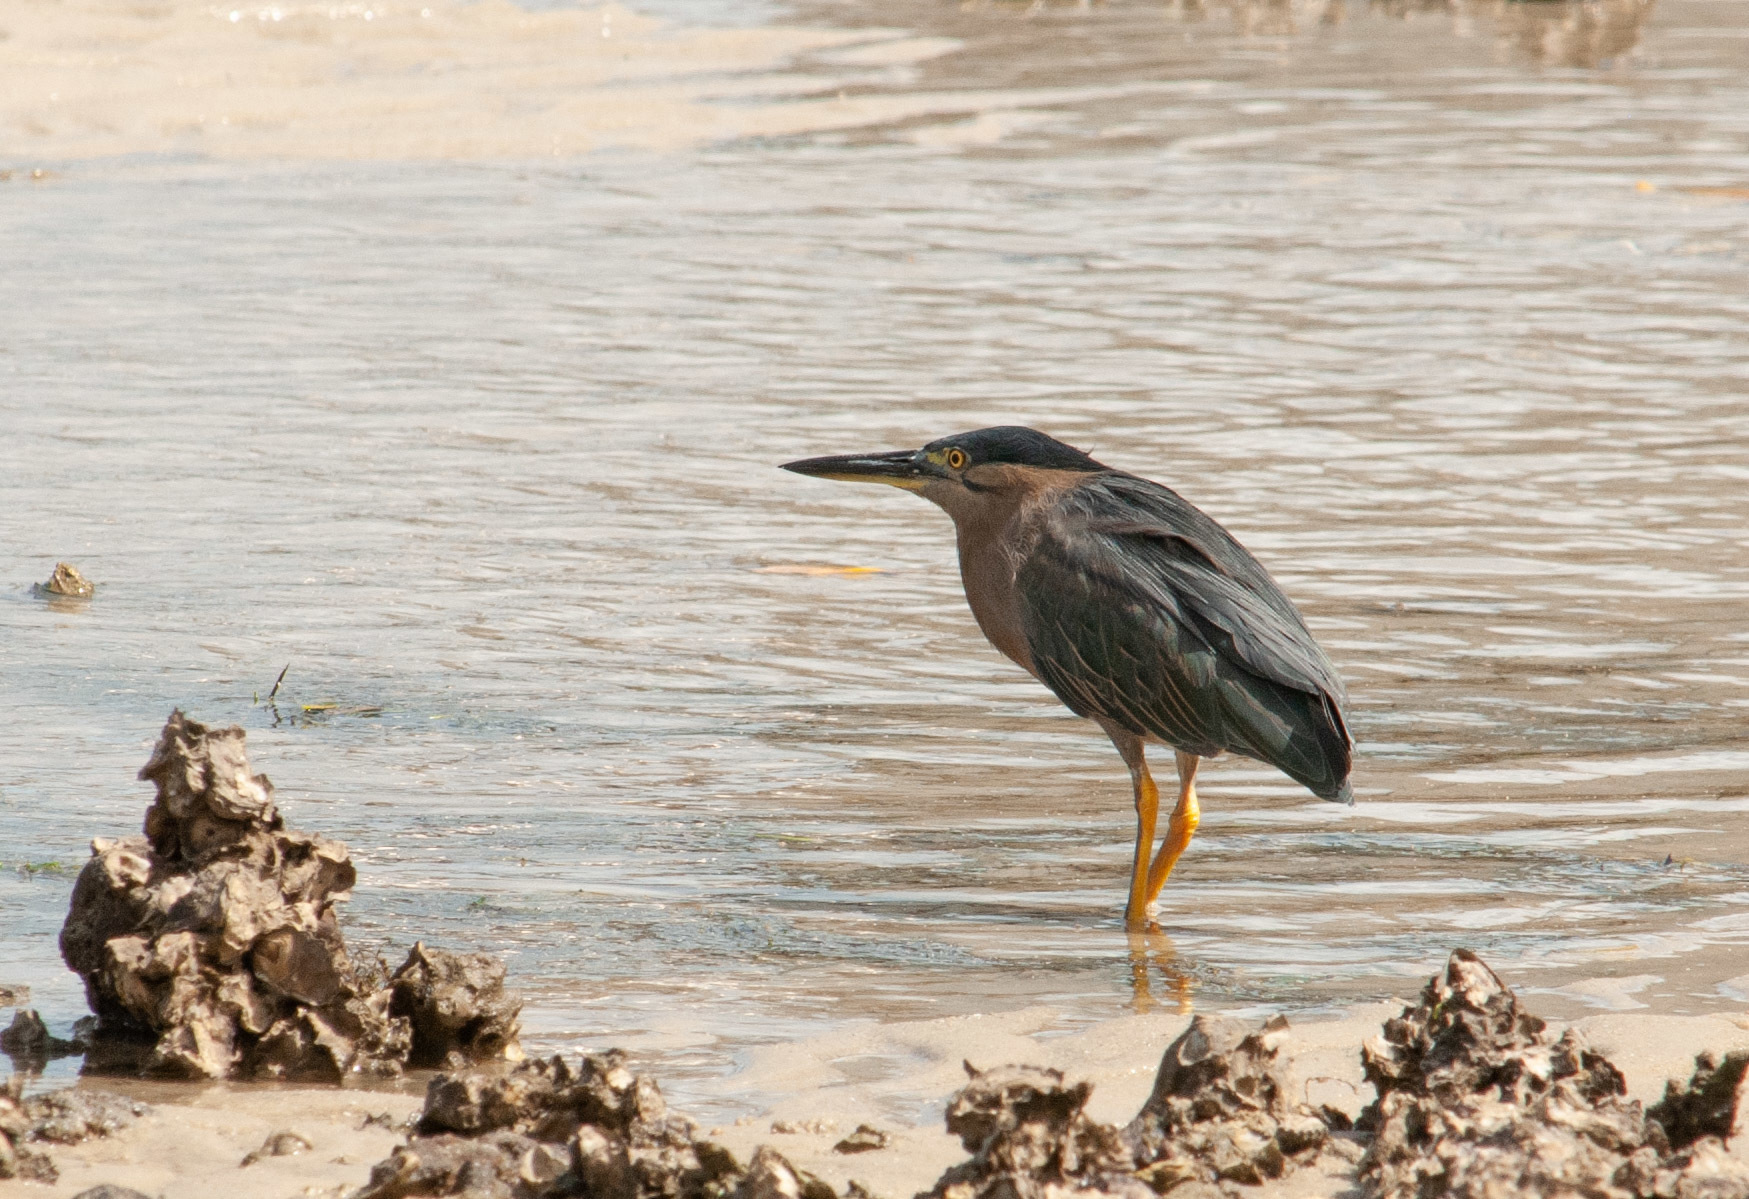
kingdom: Animalia
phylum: Chordata
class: Aves
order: Pelecaniformes
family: Ardeidae
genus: Butorides
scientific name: Butorides striata
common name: Striated heron
